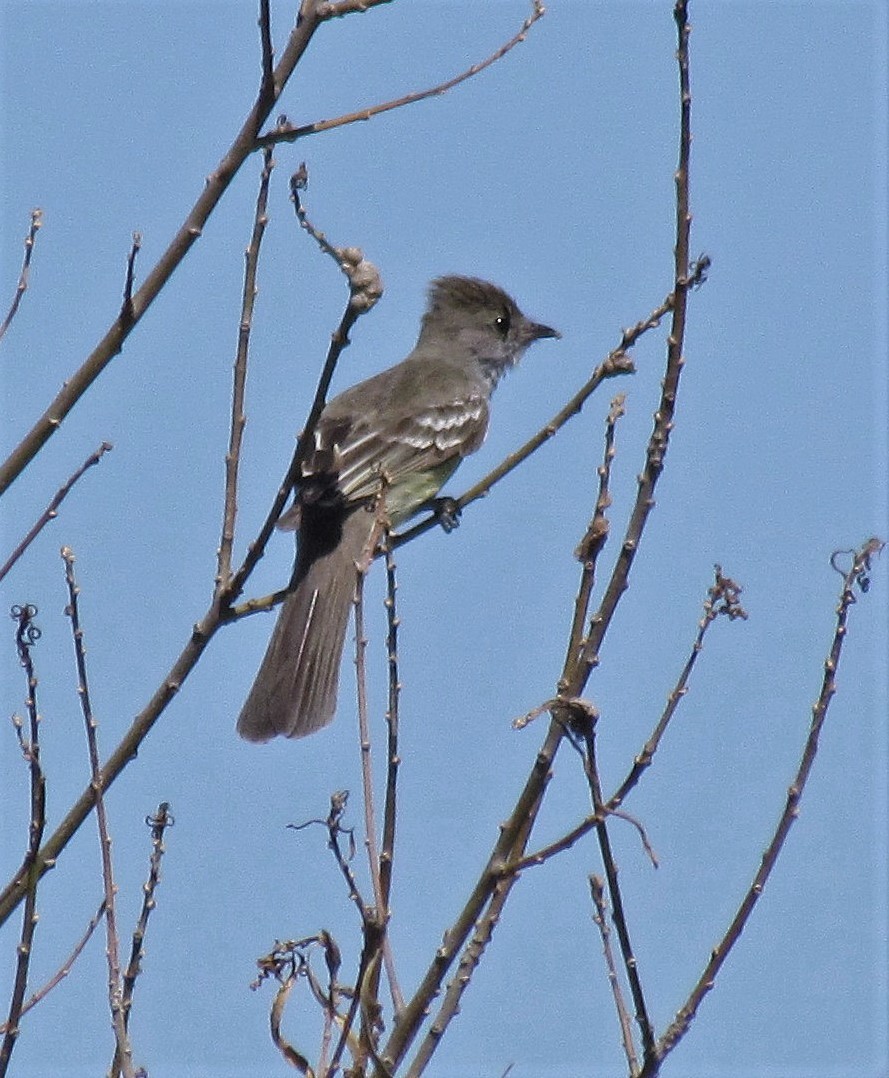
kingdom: Animalia
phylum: Chordata
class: Aves
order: Passeriformes
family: Tyrannidae
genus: Elaenia
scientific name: Elaenia spectabilis
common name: Large elaenia
